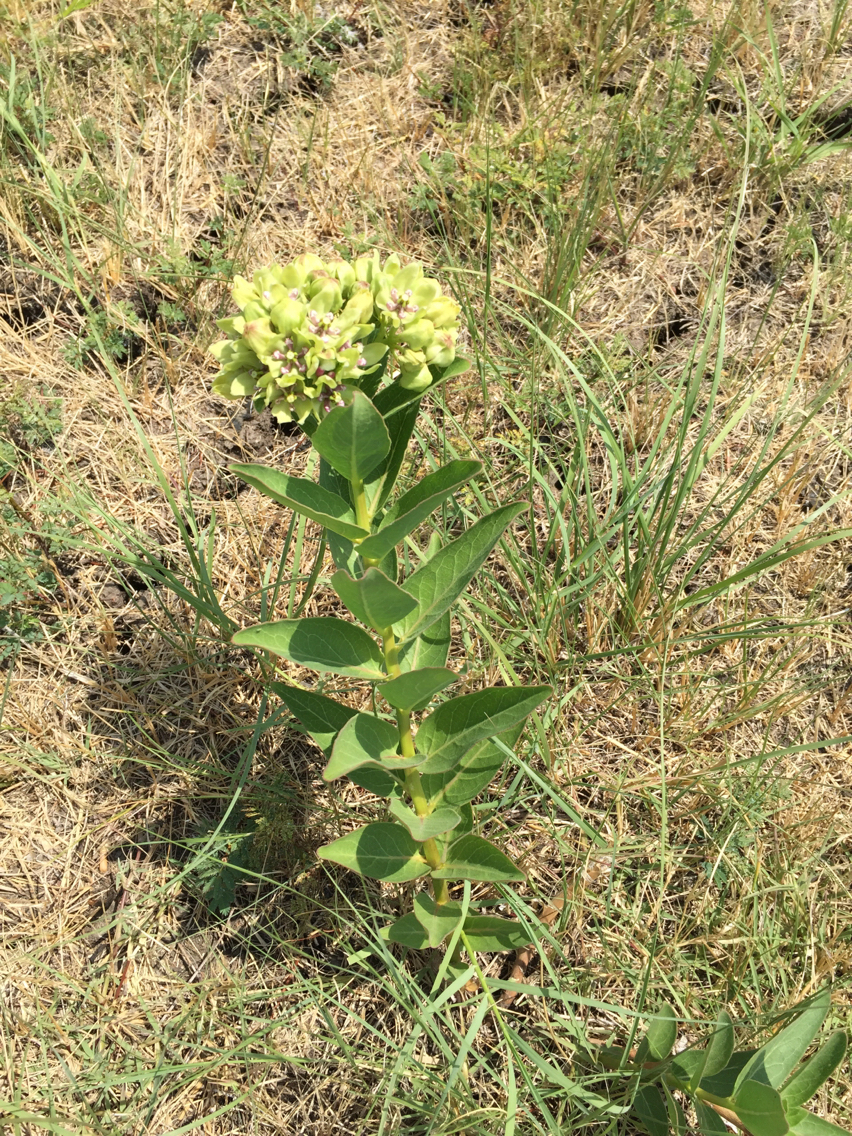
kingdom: Plantae
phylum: Tracheophyta
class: Magnoliopsida
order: Gentianales
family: Apocynaceae
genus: Asclepias
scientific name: Asclepias viridis
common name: Antelope-horns
